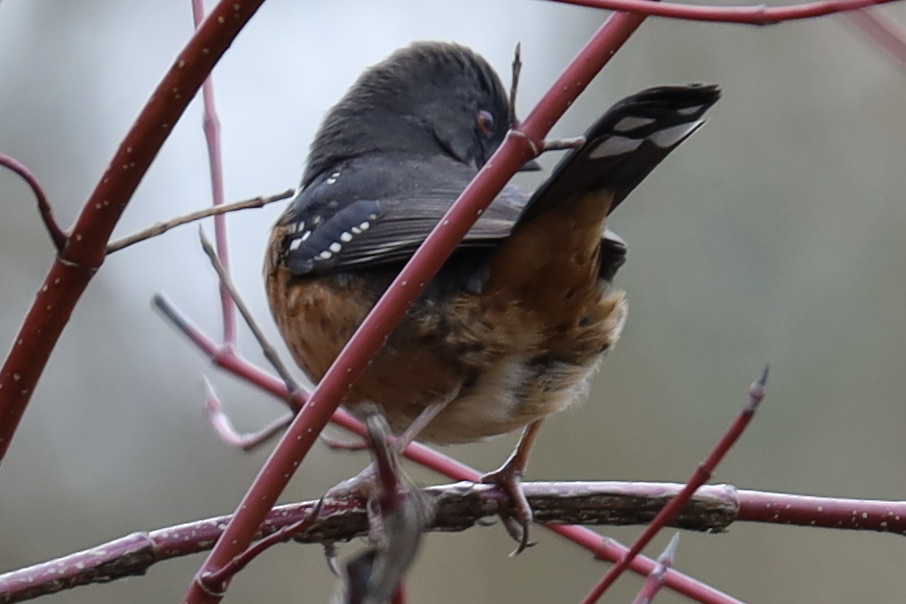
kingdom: Animalia
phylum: Chordata
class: Aves
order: Passeriformes
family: Passerellidae
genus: Pipilo
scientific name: Pipilo maculatus
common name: Spotted towhee
